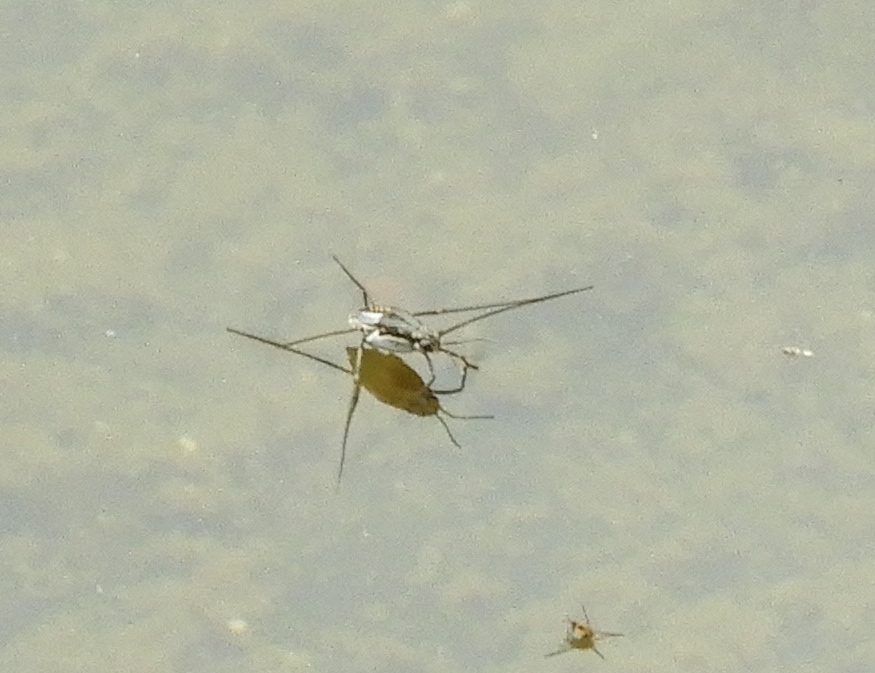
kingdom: Animalia
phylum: Arthropoda
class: Insecta
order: Hemiptera
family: Gerridae
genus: Trepobates
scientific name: Trepobates
